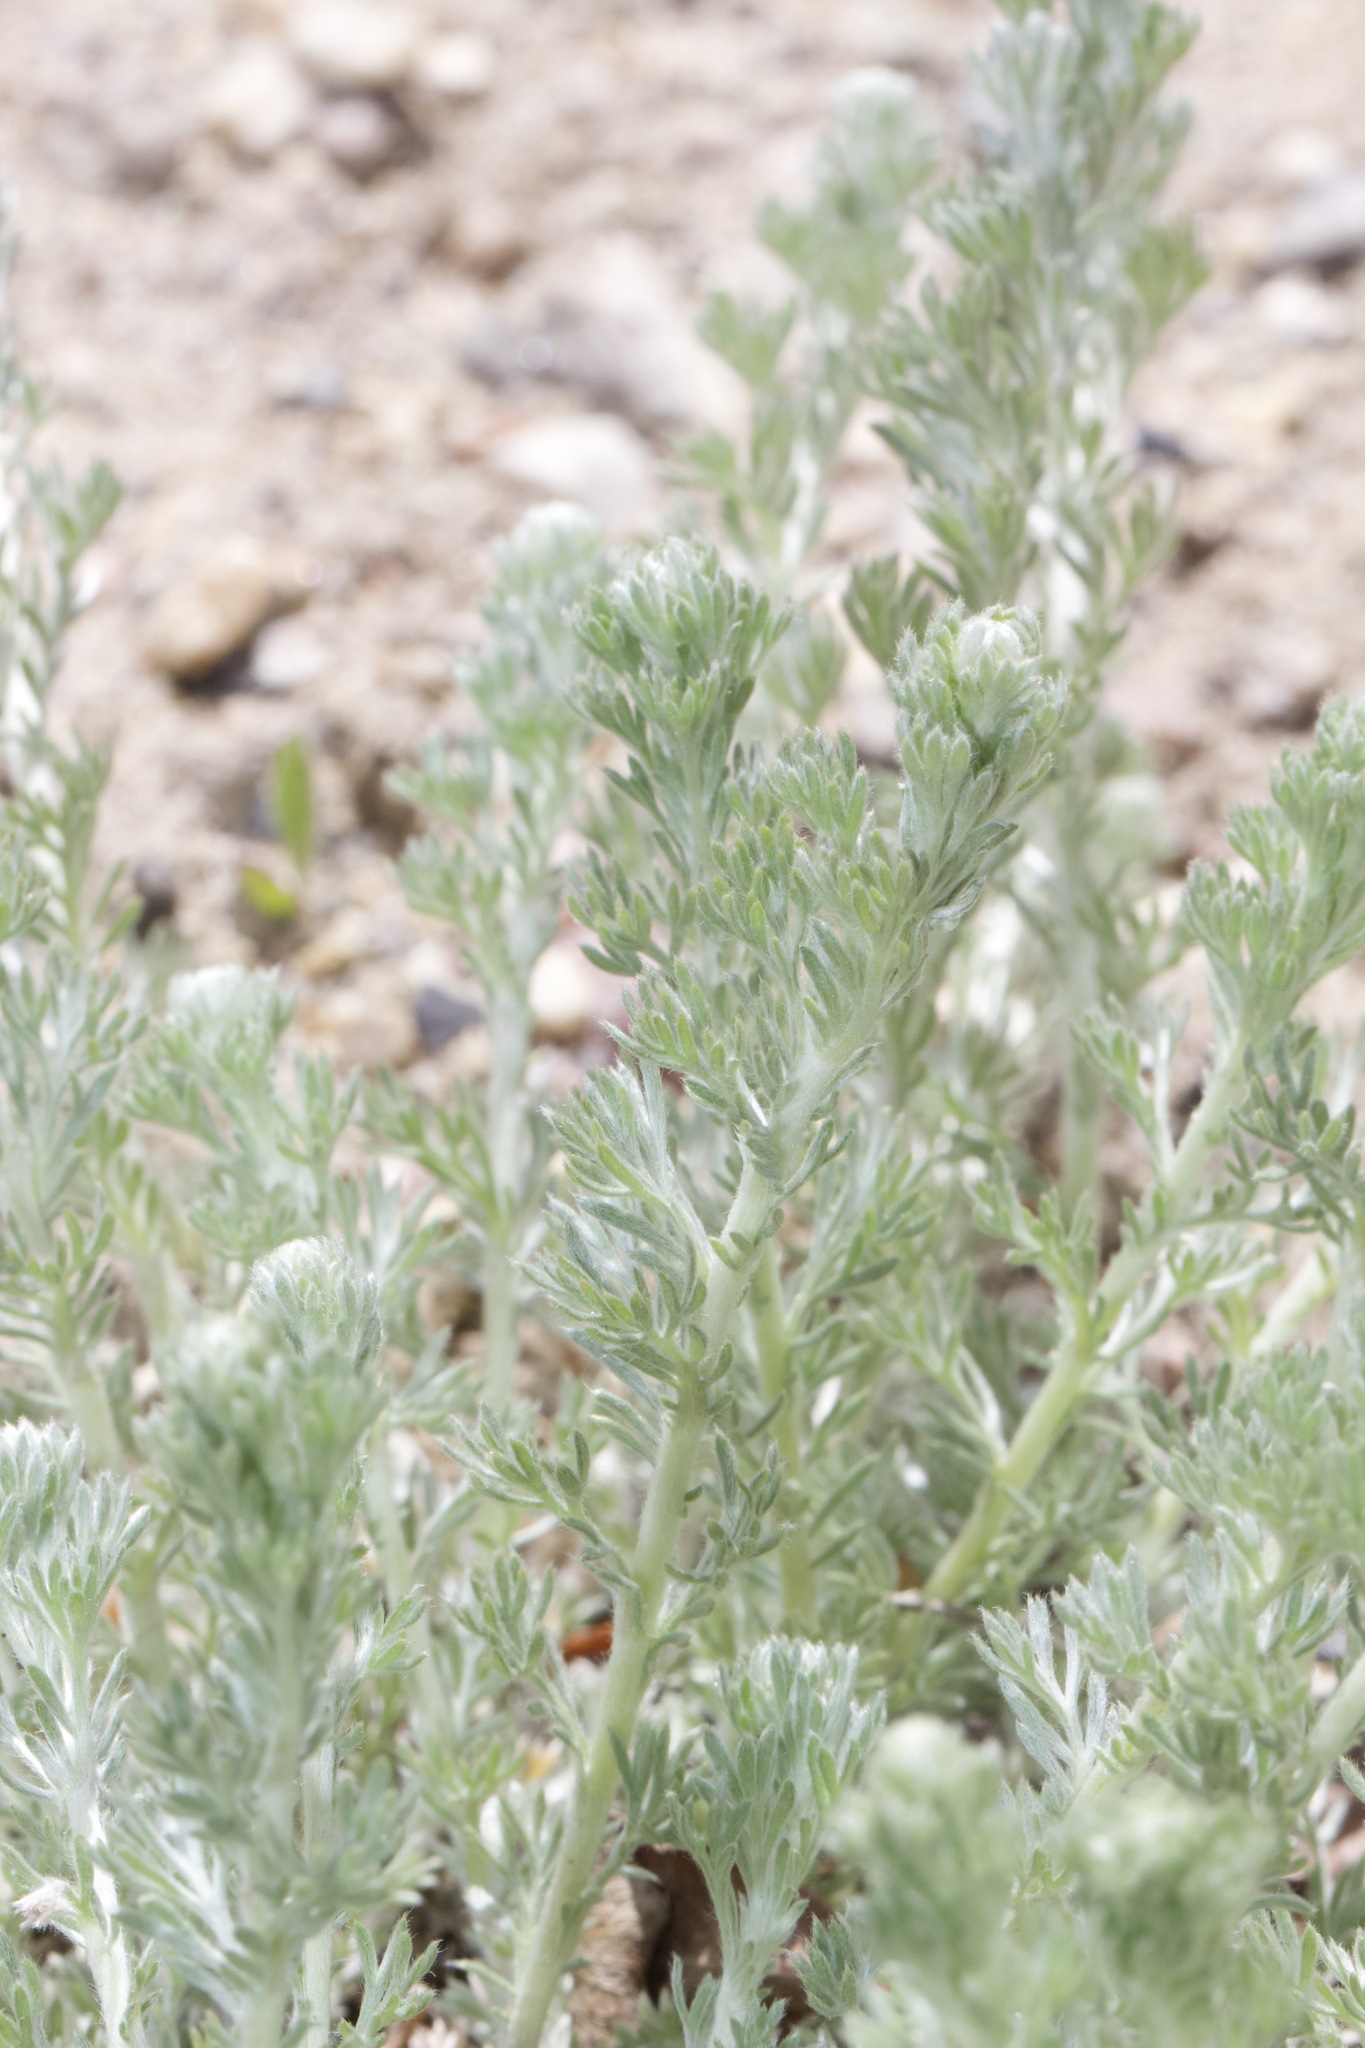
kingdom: Plantae
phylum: Tracheophyta
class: Magnoliopsida
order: Asterales
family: Asteraceae
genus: Artemisia
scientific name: Artemisia frigida
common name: Prairie sagewort
